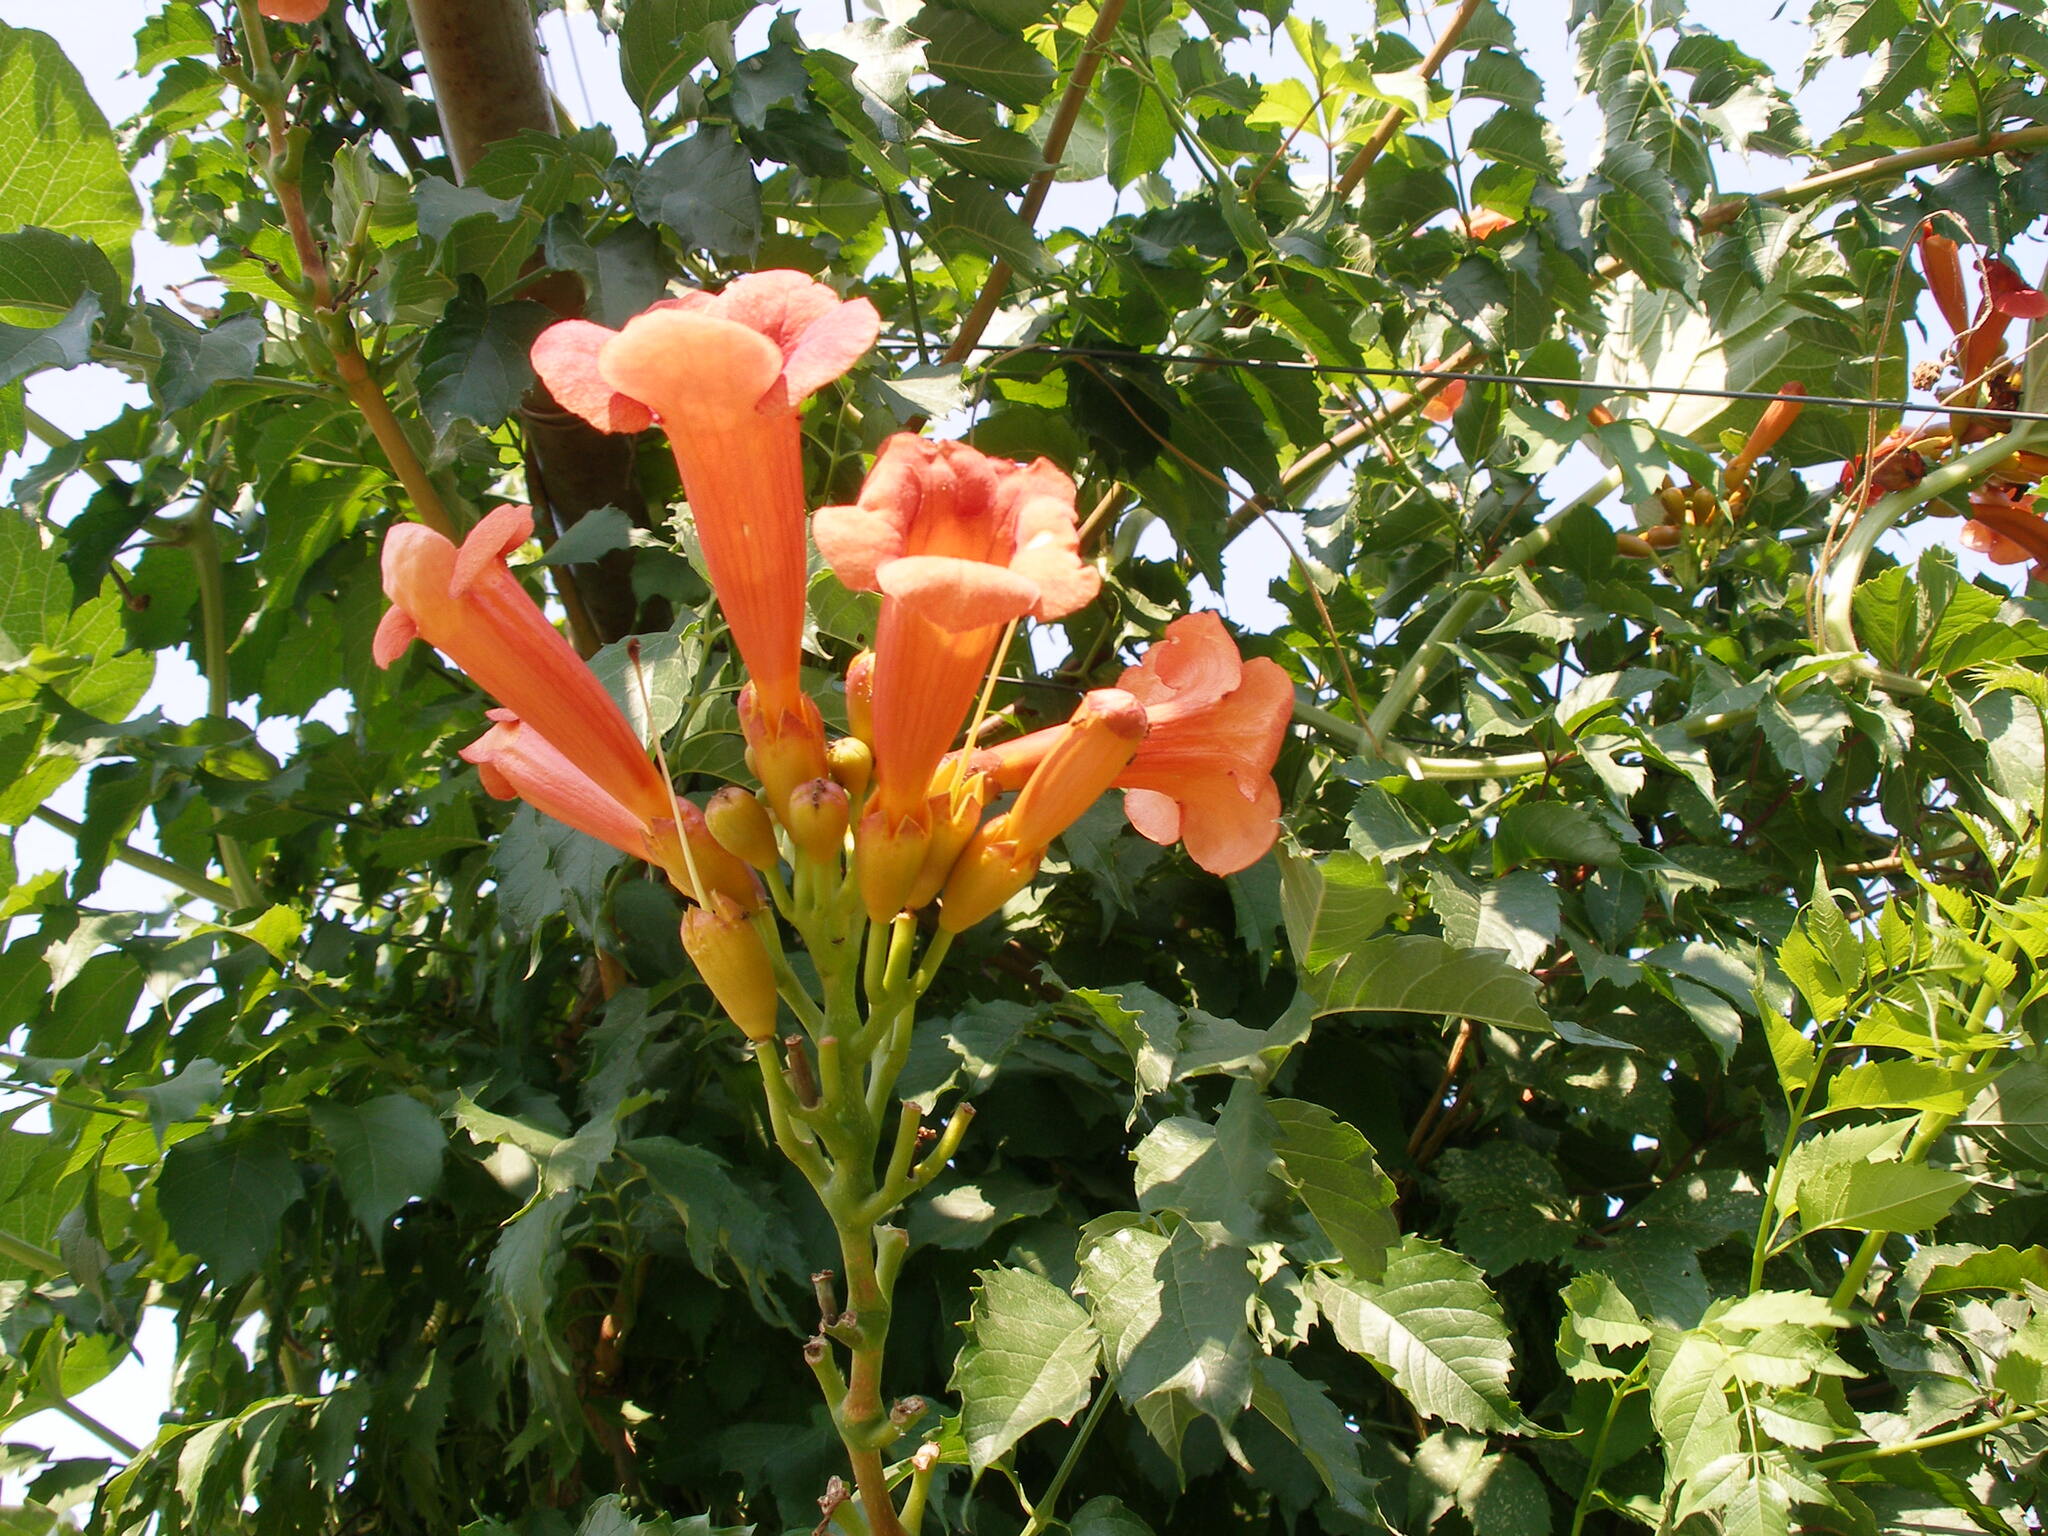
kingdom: Plantae
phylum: Tracheophyta
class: Magnoliopsida
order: Lamiales
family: Bignoniaceae
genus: Campsis
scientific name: Campsis radicans
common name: Trumpet-creeper
